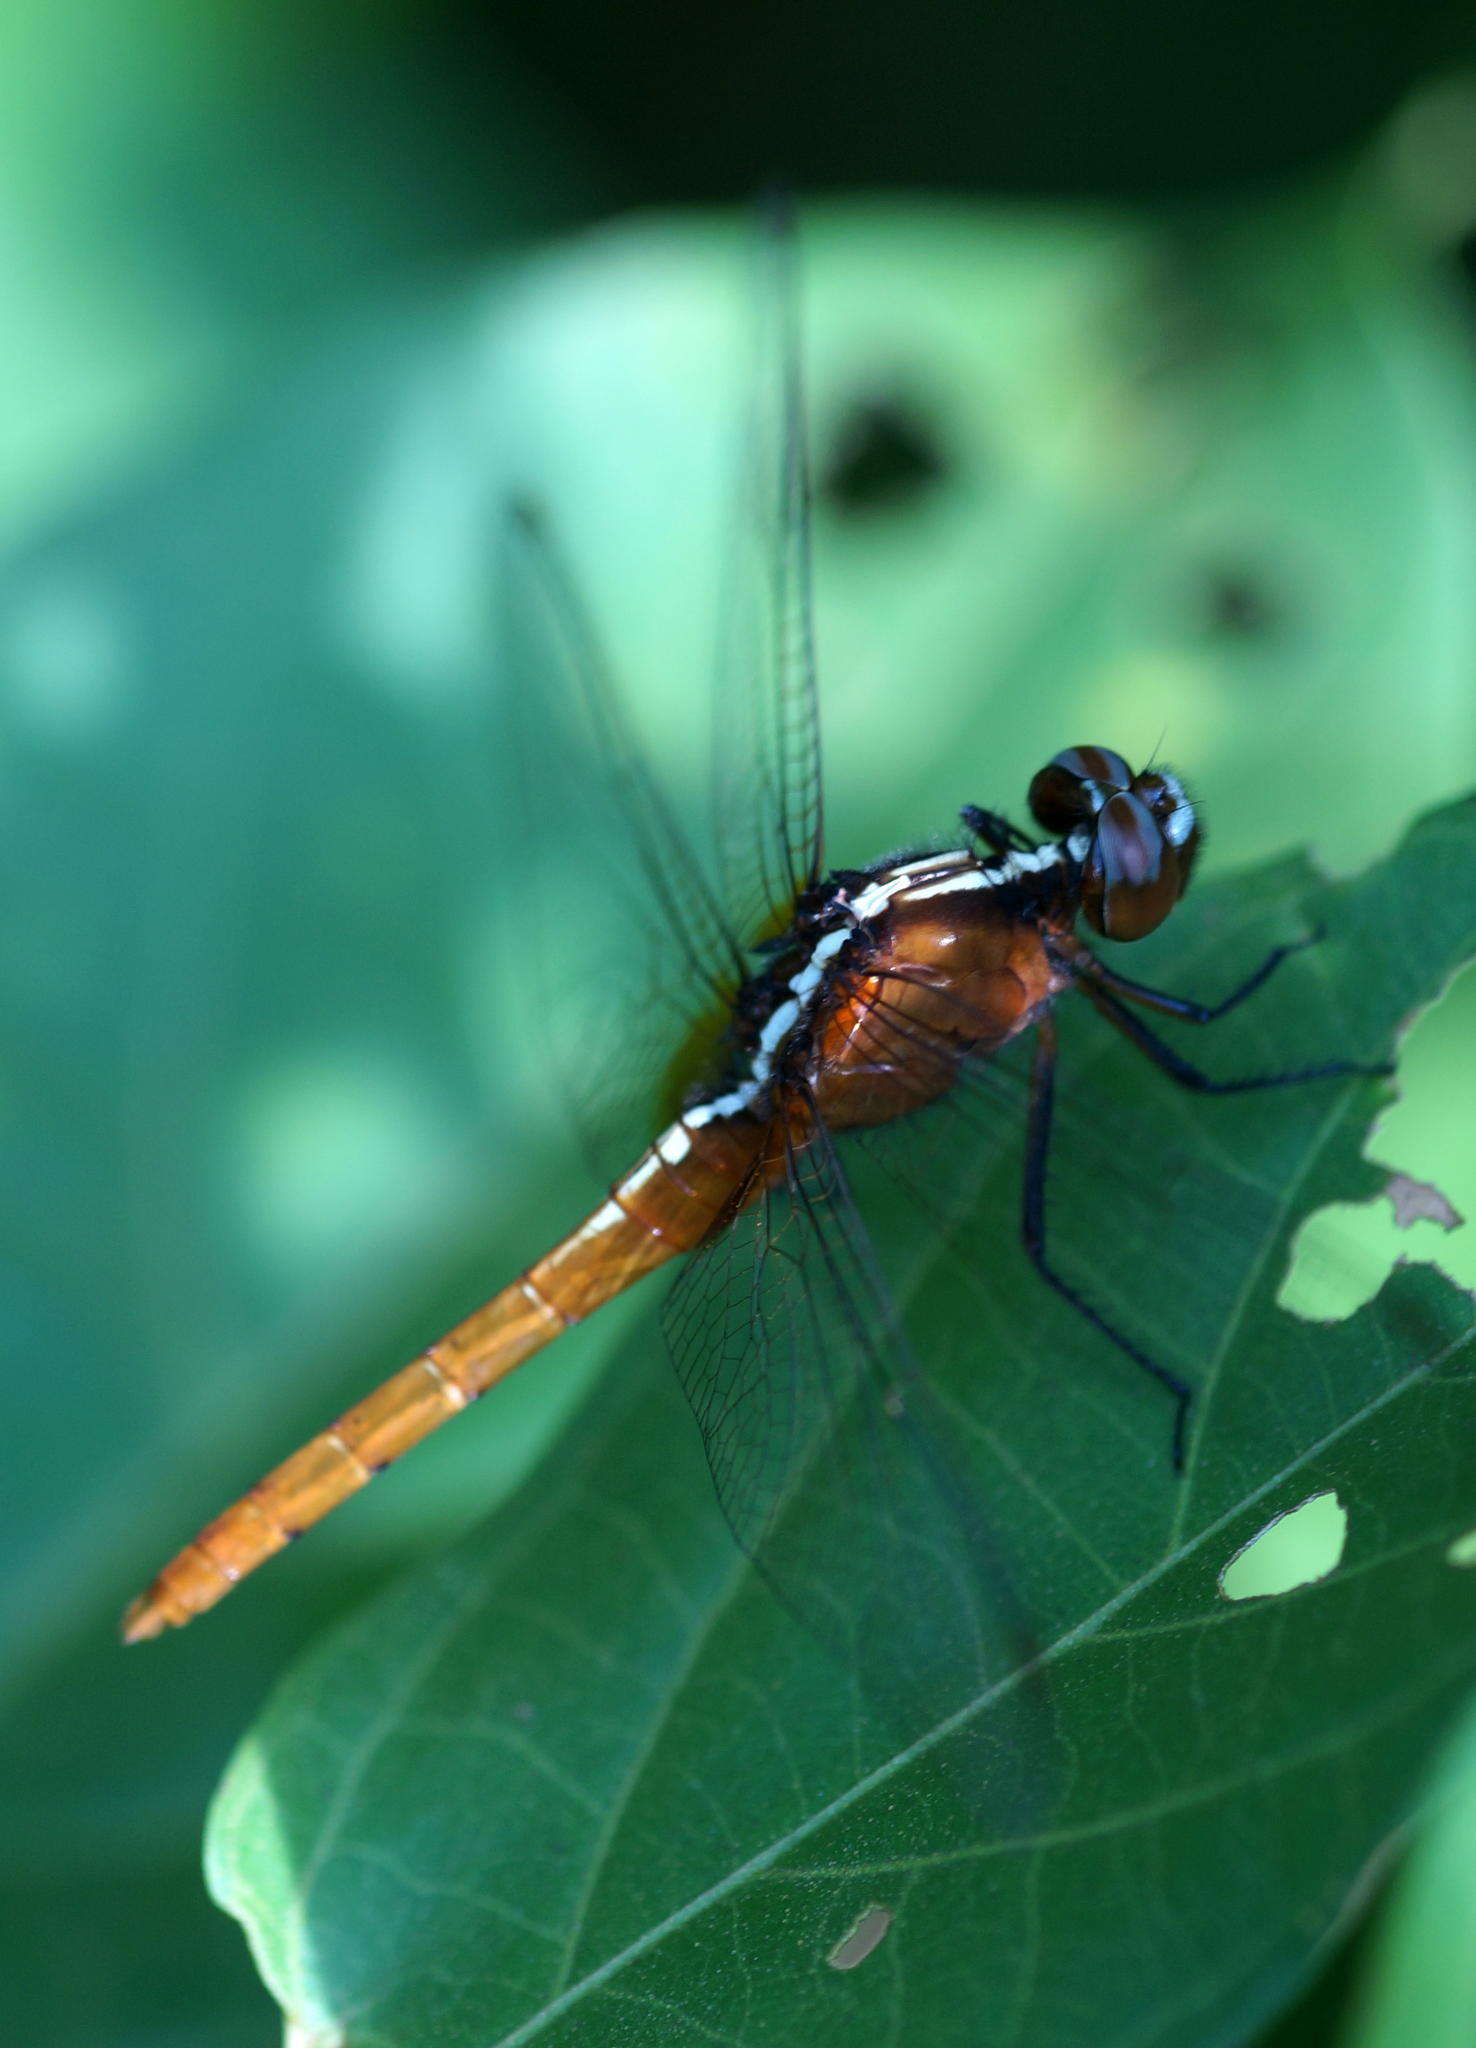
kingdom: Animalia
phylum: Arthropoda
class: Insecta
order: Odonata
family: Libellulidae
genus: Rhodothemis
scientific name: Rhodothemis rufa
